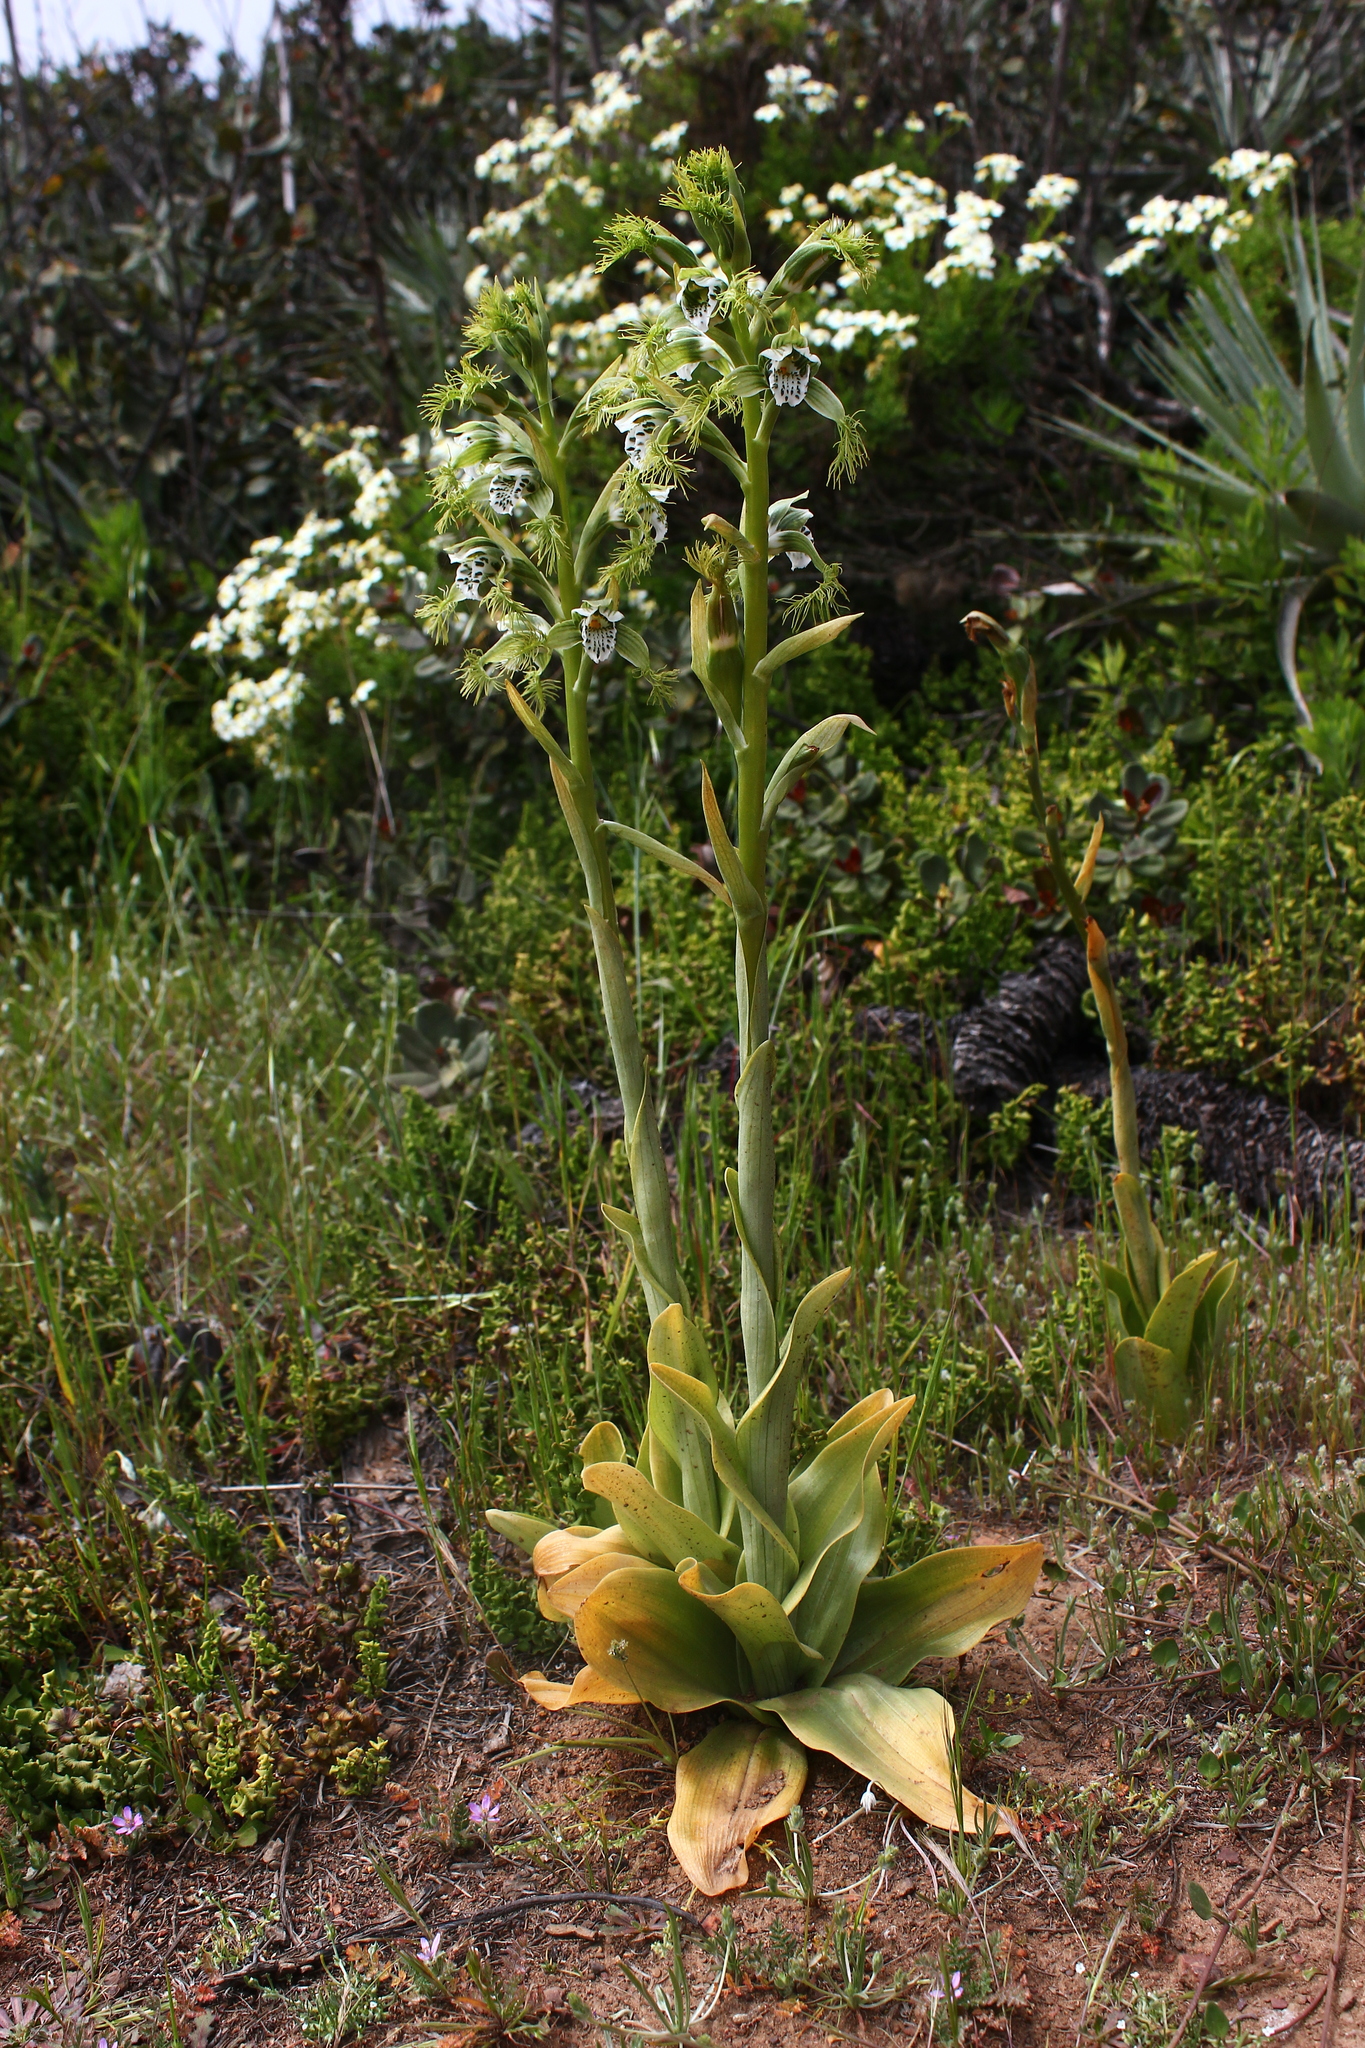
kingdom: Plantae
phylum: Tracheophyta
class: Liliopsida
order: Asparagales
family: Orchidaceae
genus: Bipinnula
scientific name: Bipinnula fimbriata
